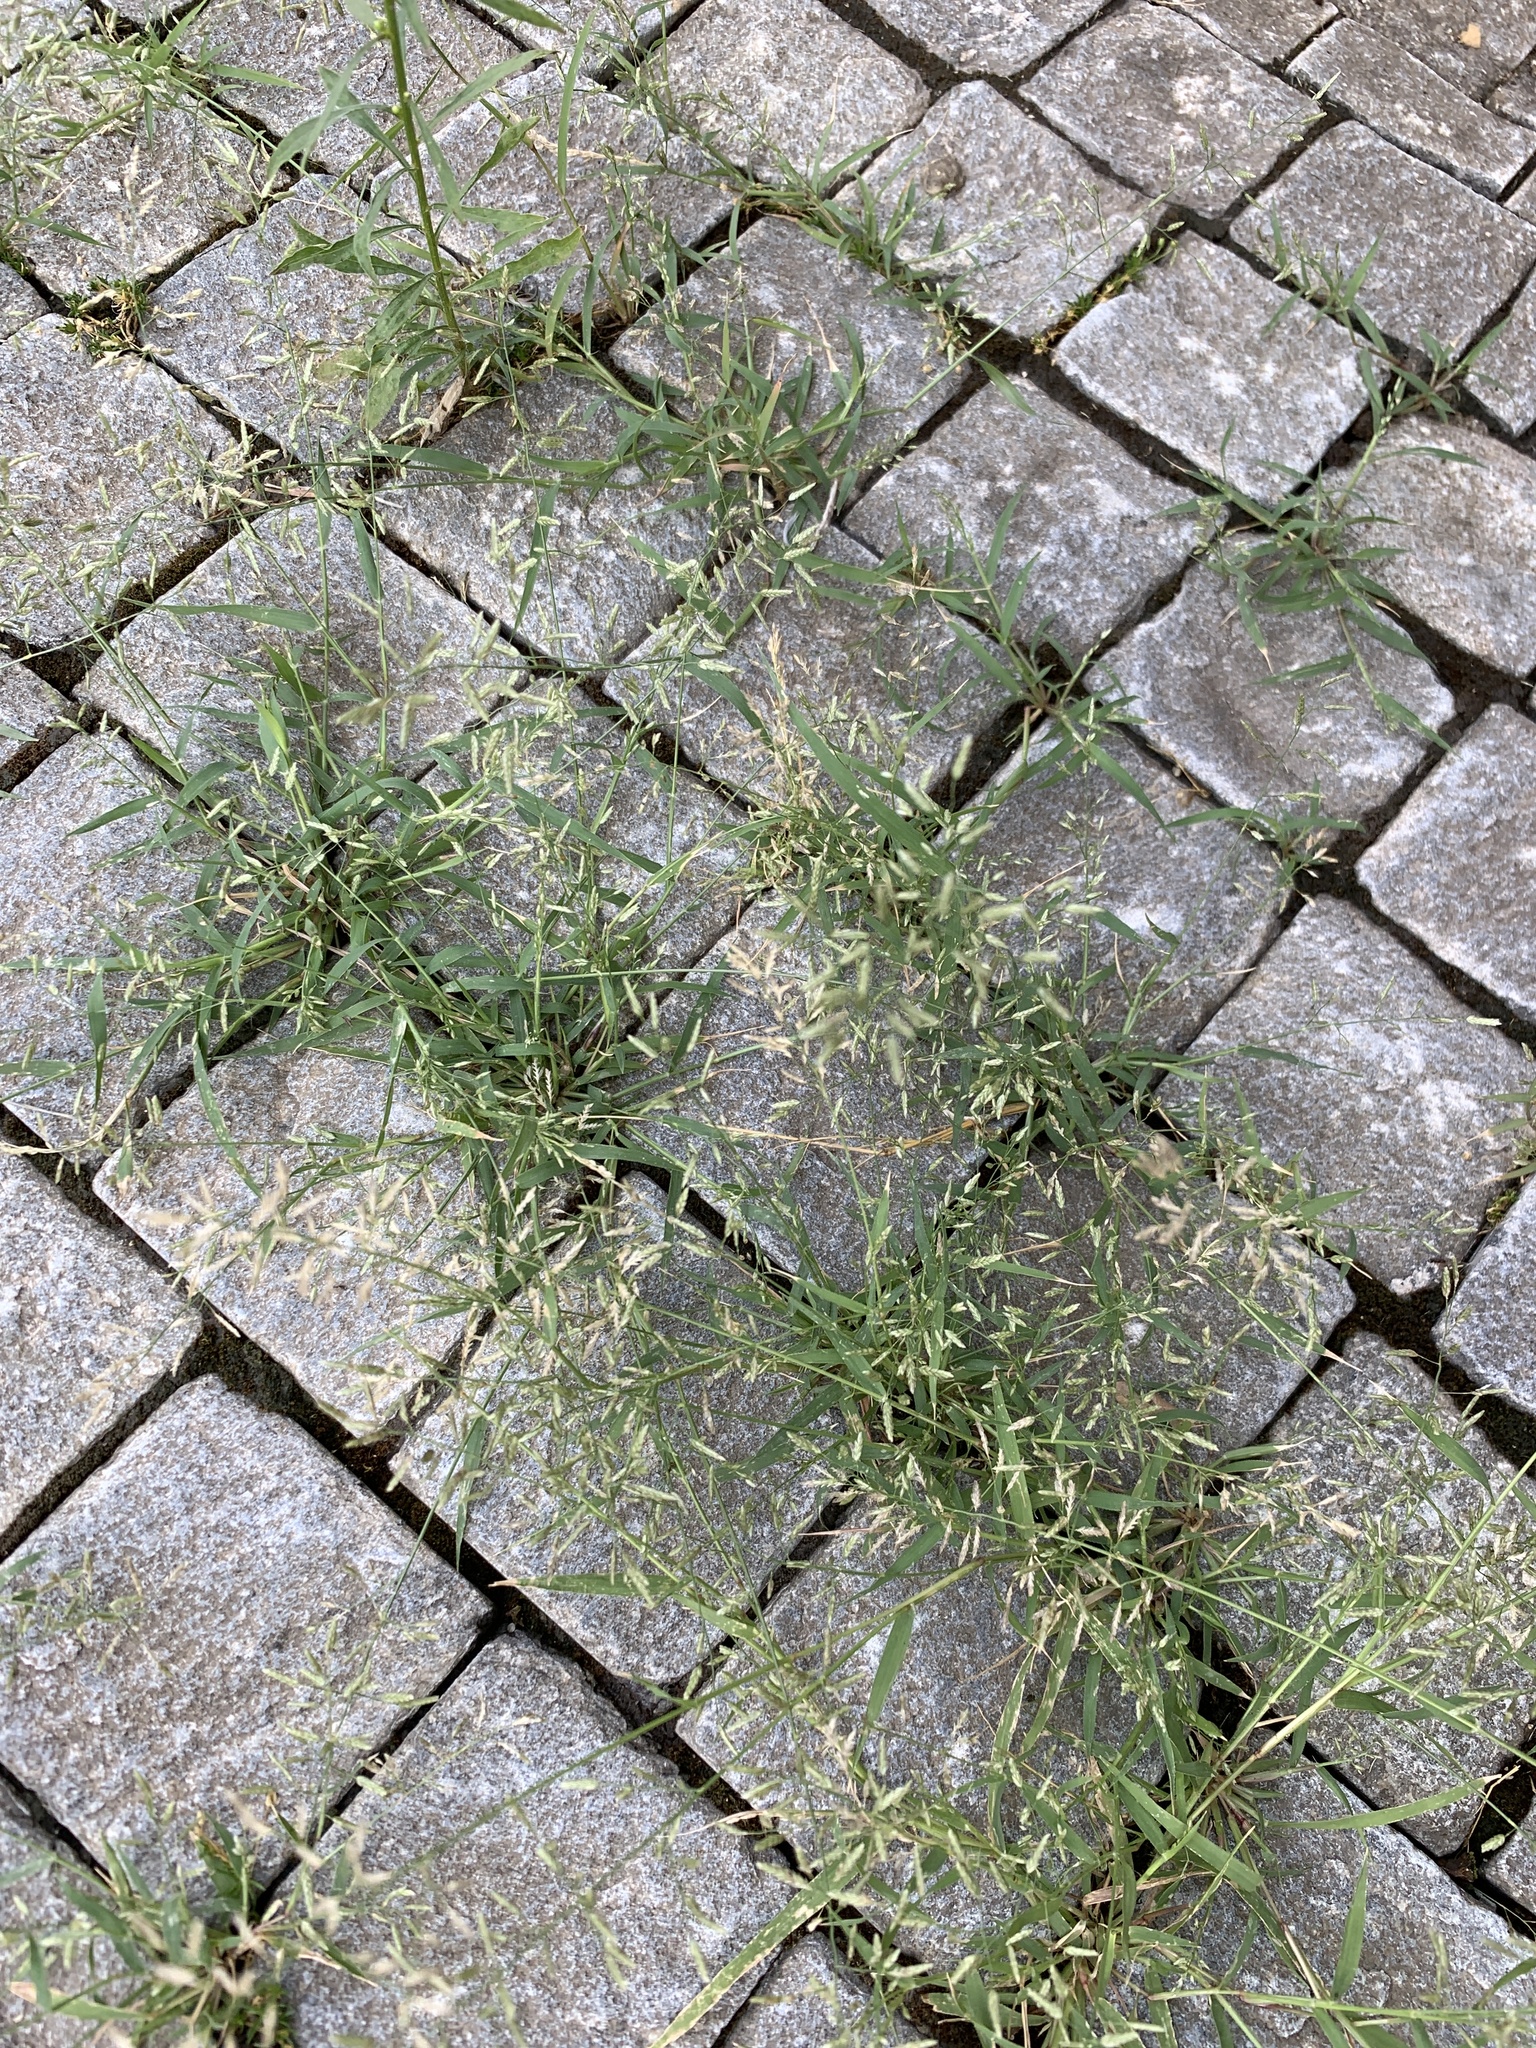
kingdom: Plantae
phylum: Tracheophyta
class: Liliopsida
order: Poales
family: Poaceae
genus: Eragrostis
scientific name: Eragrostis minor
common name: Small love-grass
